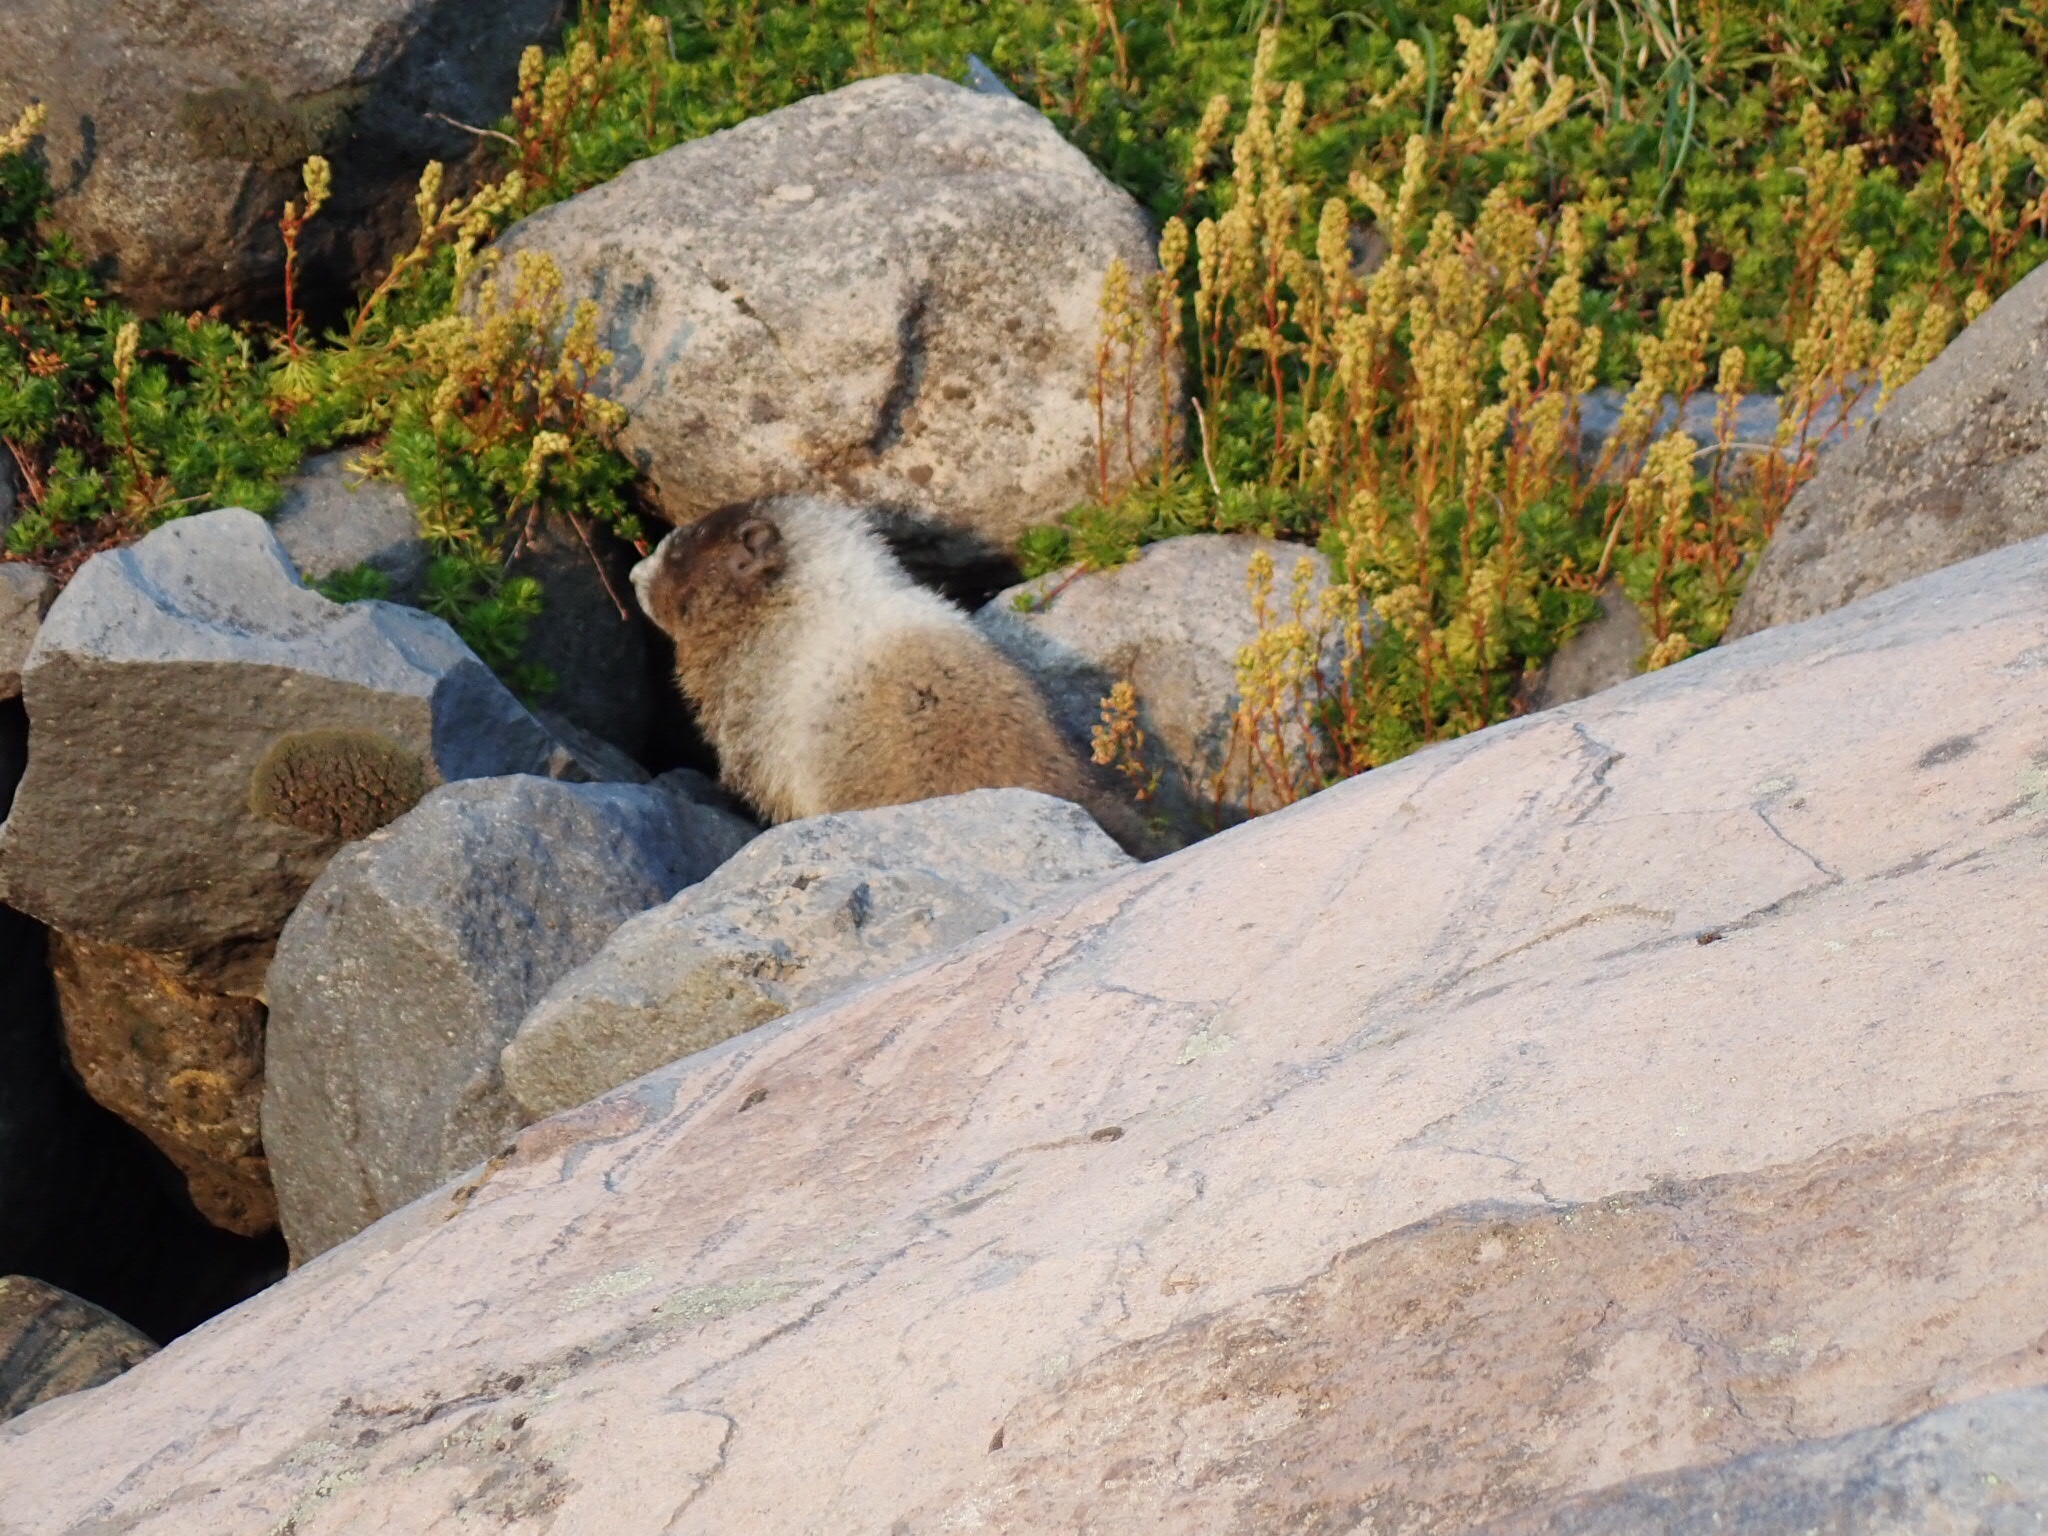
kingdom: Animalia
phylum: Chordata
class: Mammalia
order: Rodentia
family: Sciuridae
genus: Marmota
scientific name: Marmota caligata
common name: Hoary marmot
